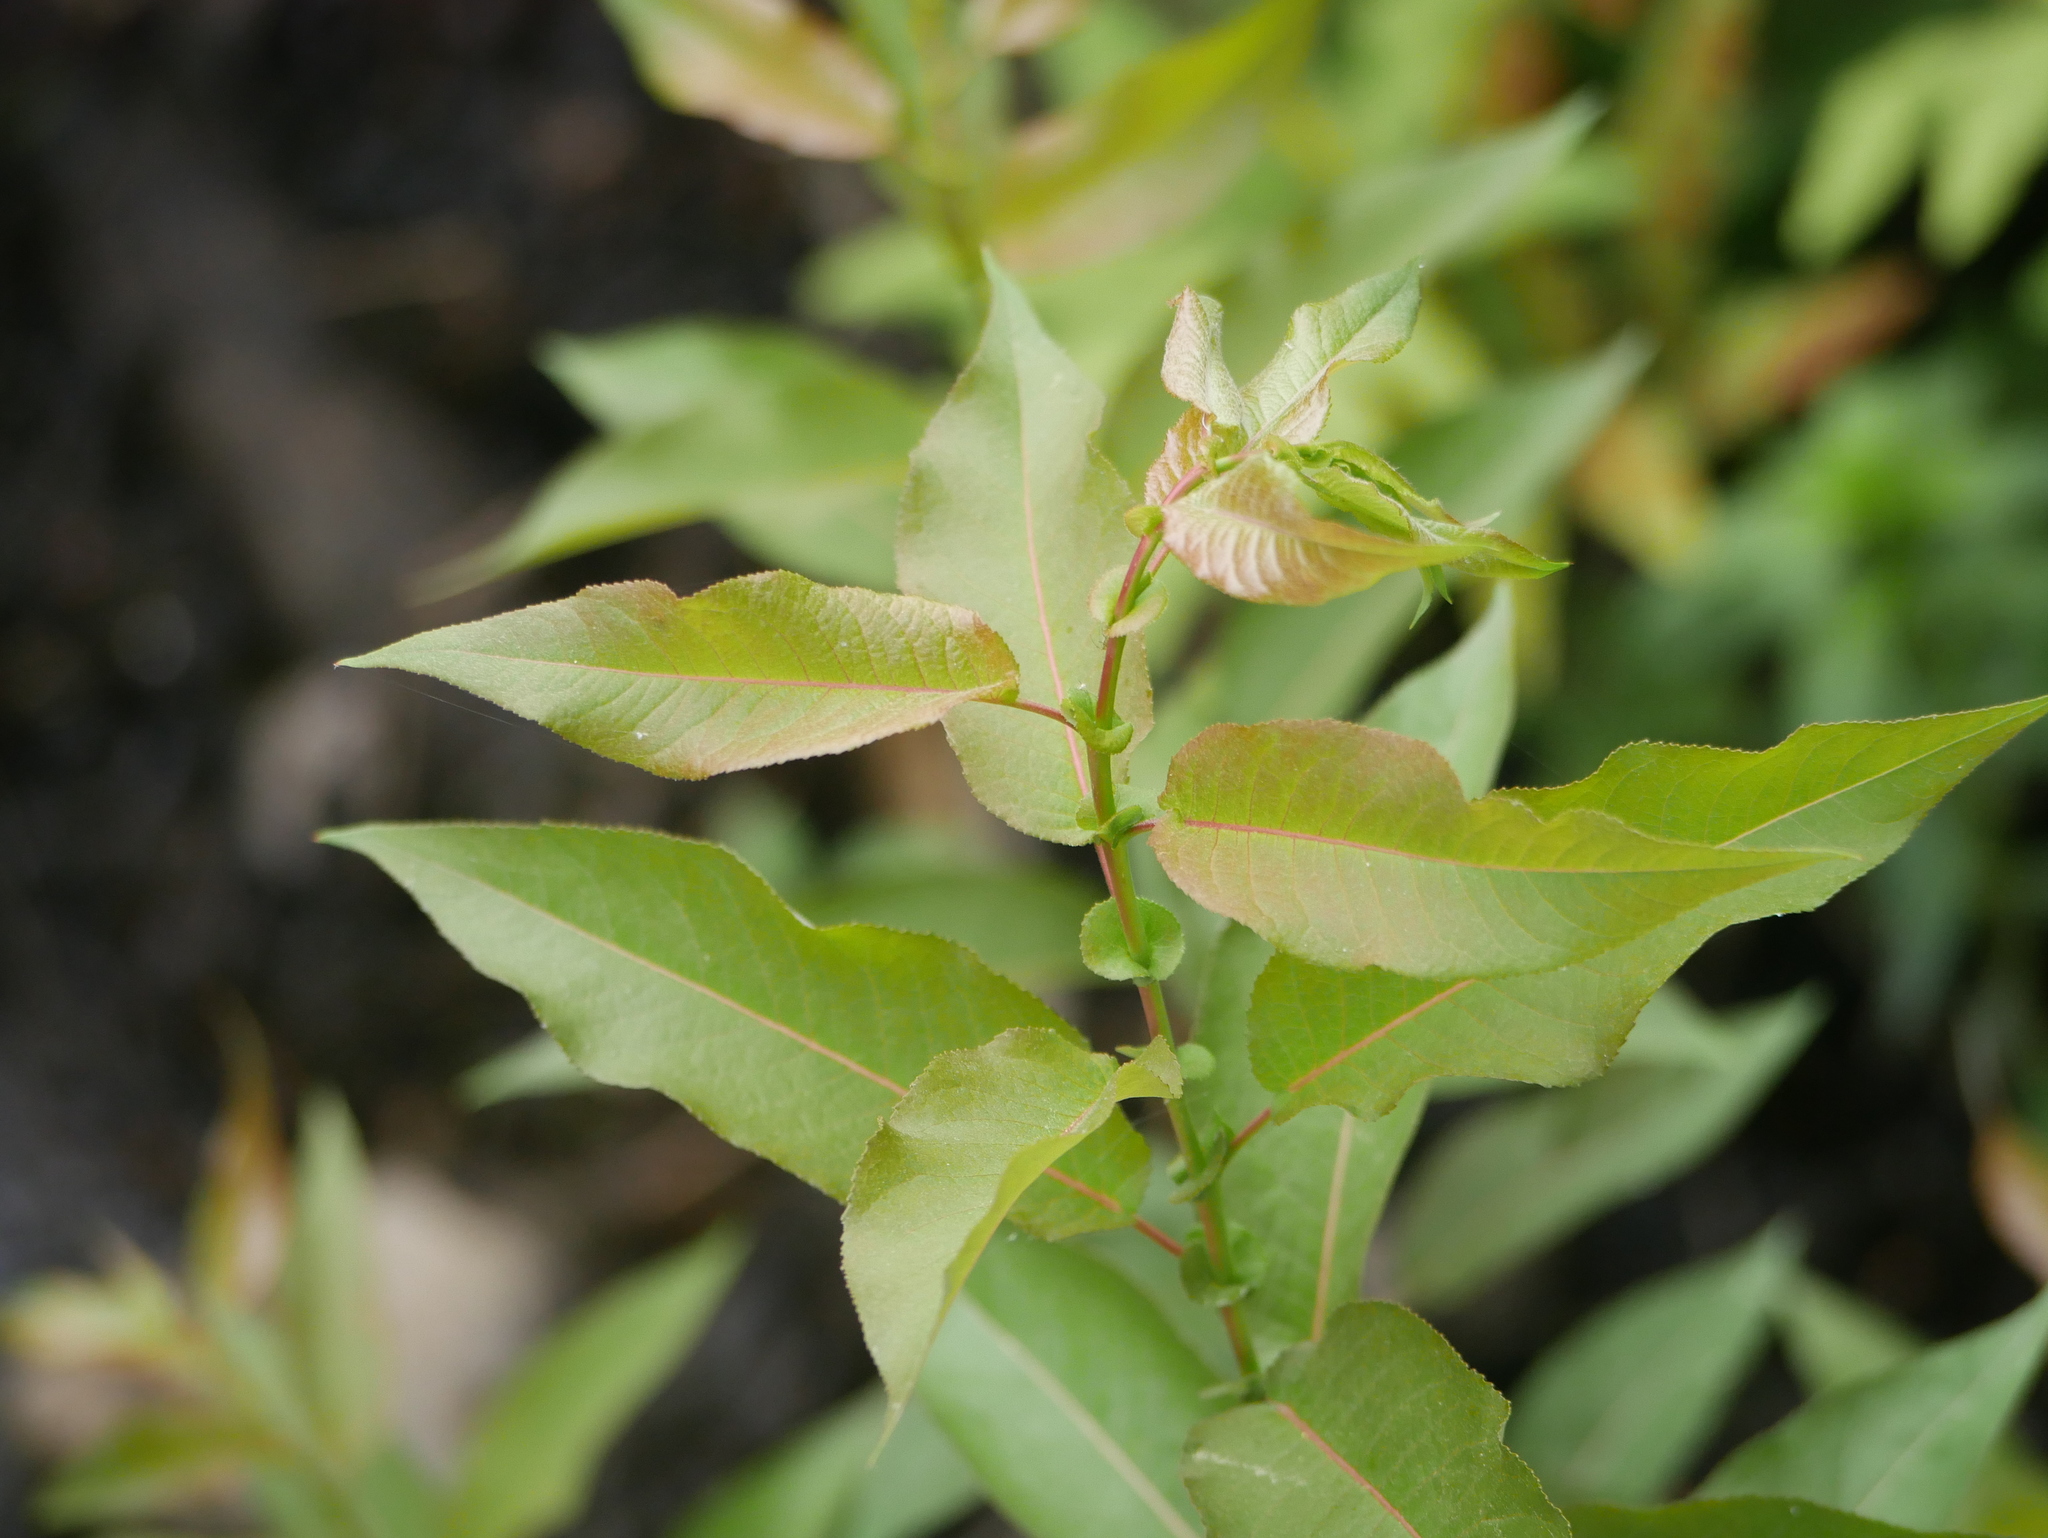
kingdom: Plantae
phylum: Tracheophyta
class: Magnoliopsida
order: Malpighiales
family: Salicaceae
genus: Salix
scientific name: Salix eriocephala
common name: Heart-leaved willow
